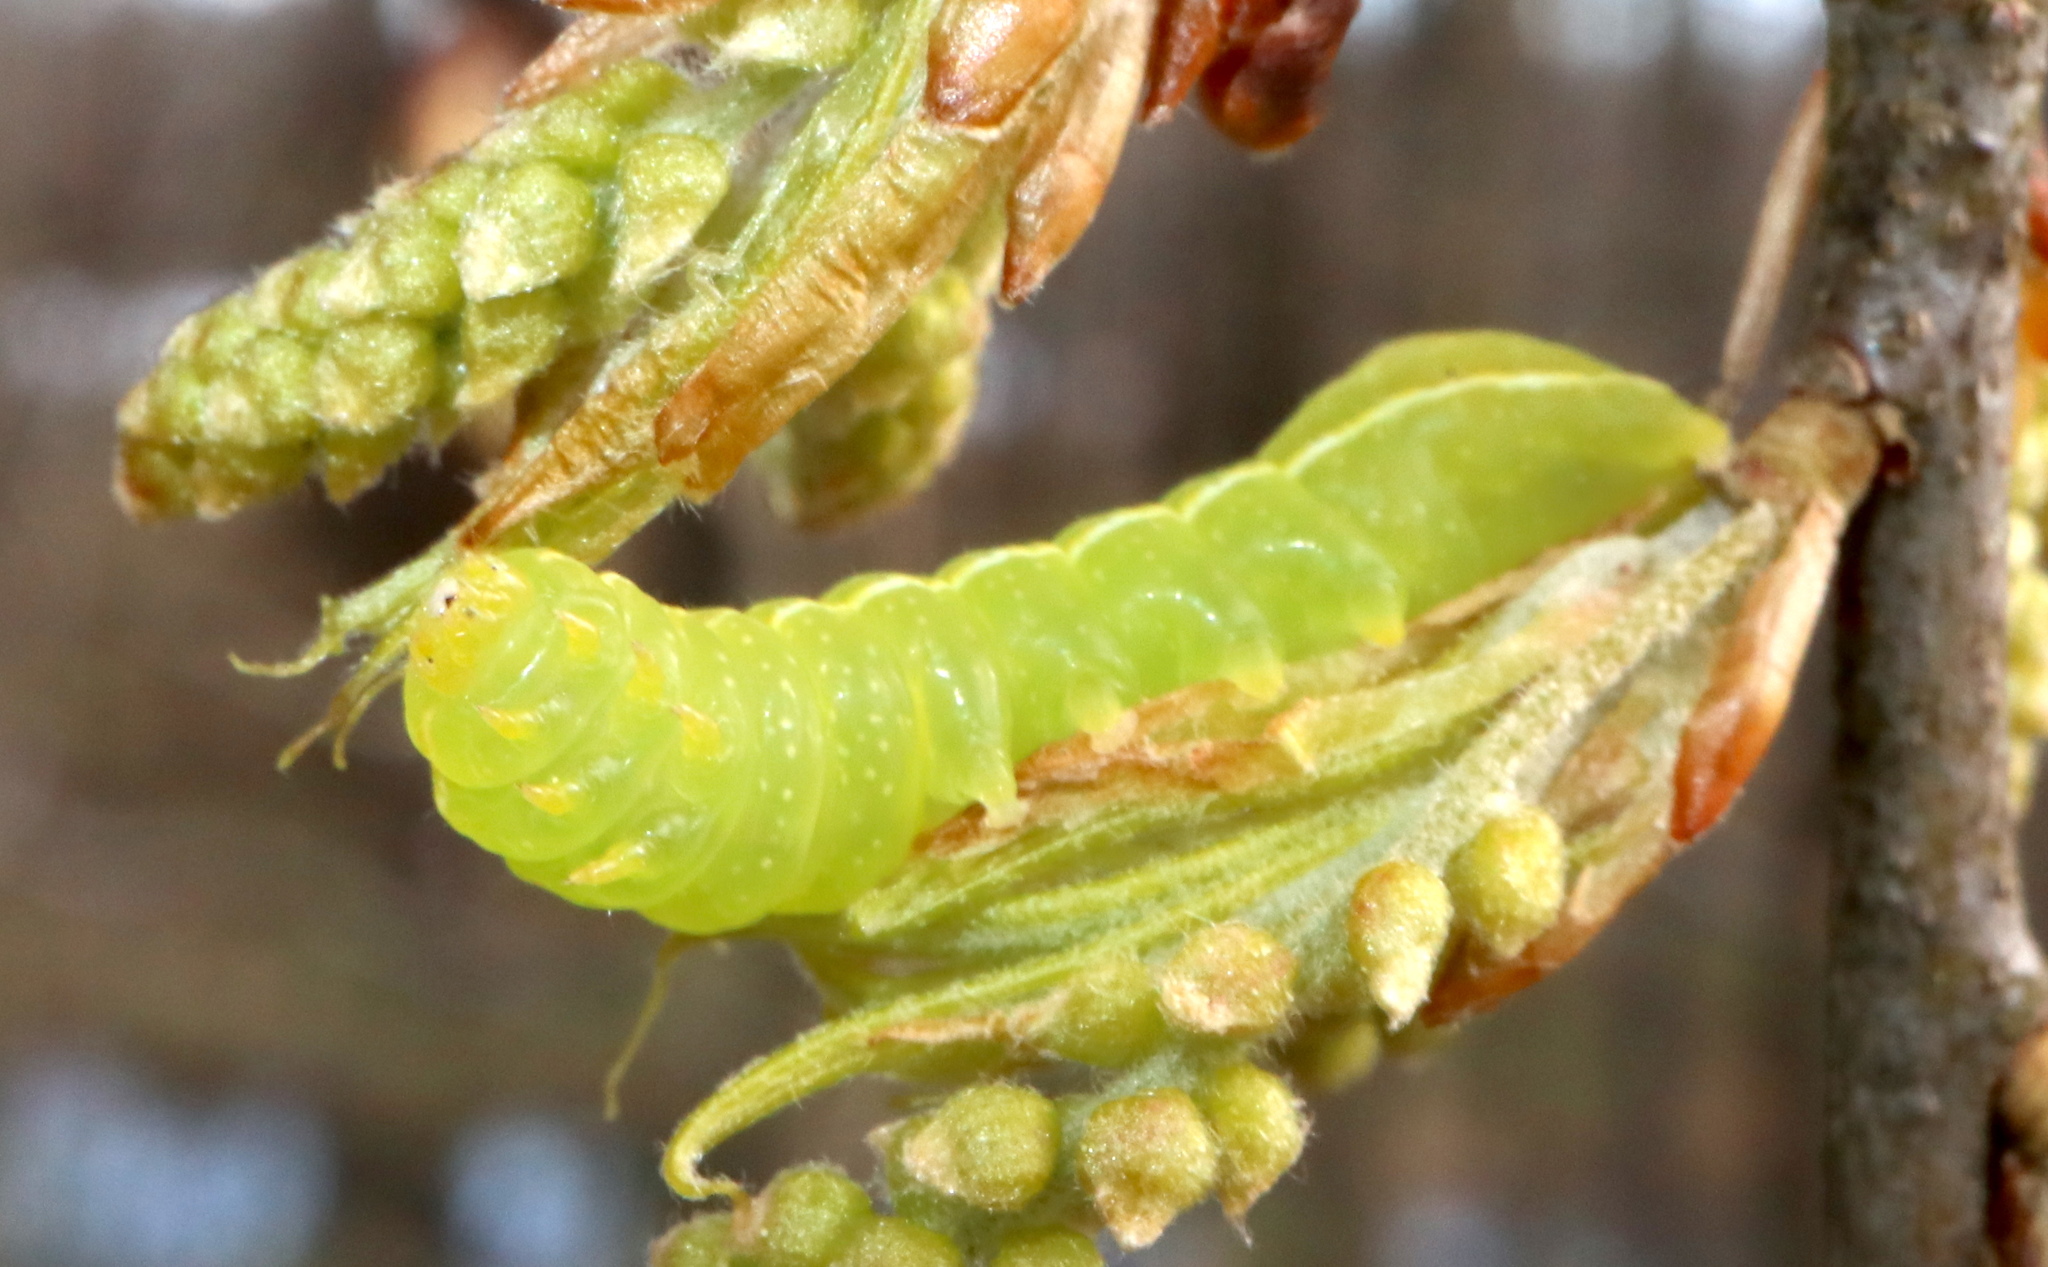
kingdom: Animalia
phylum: Arthropoda
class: Insecta
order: Lepidoptera
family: Noctuidae
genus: Amphipyra
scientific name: Amphipyra pyramidoides
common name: American copper underwing
